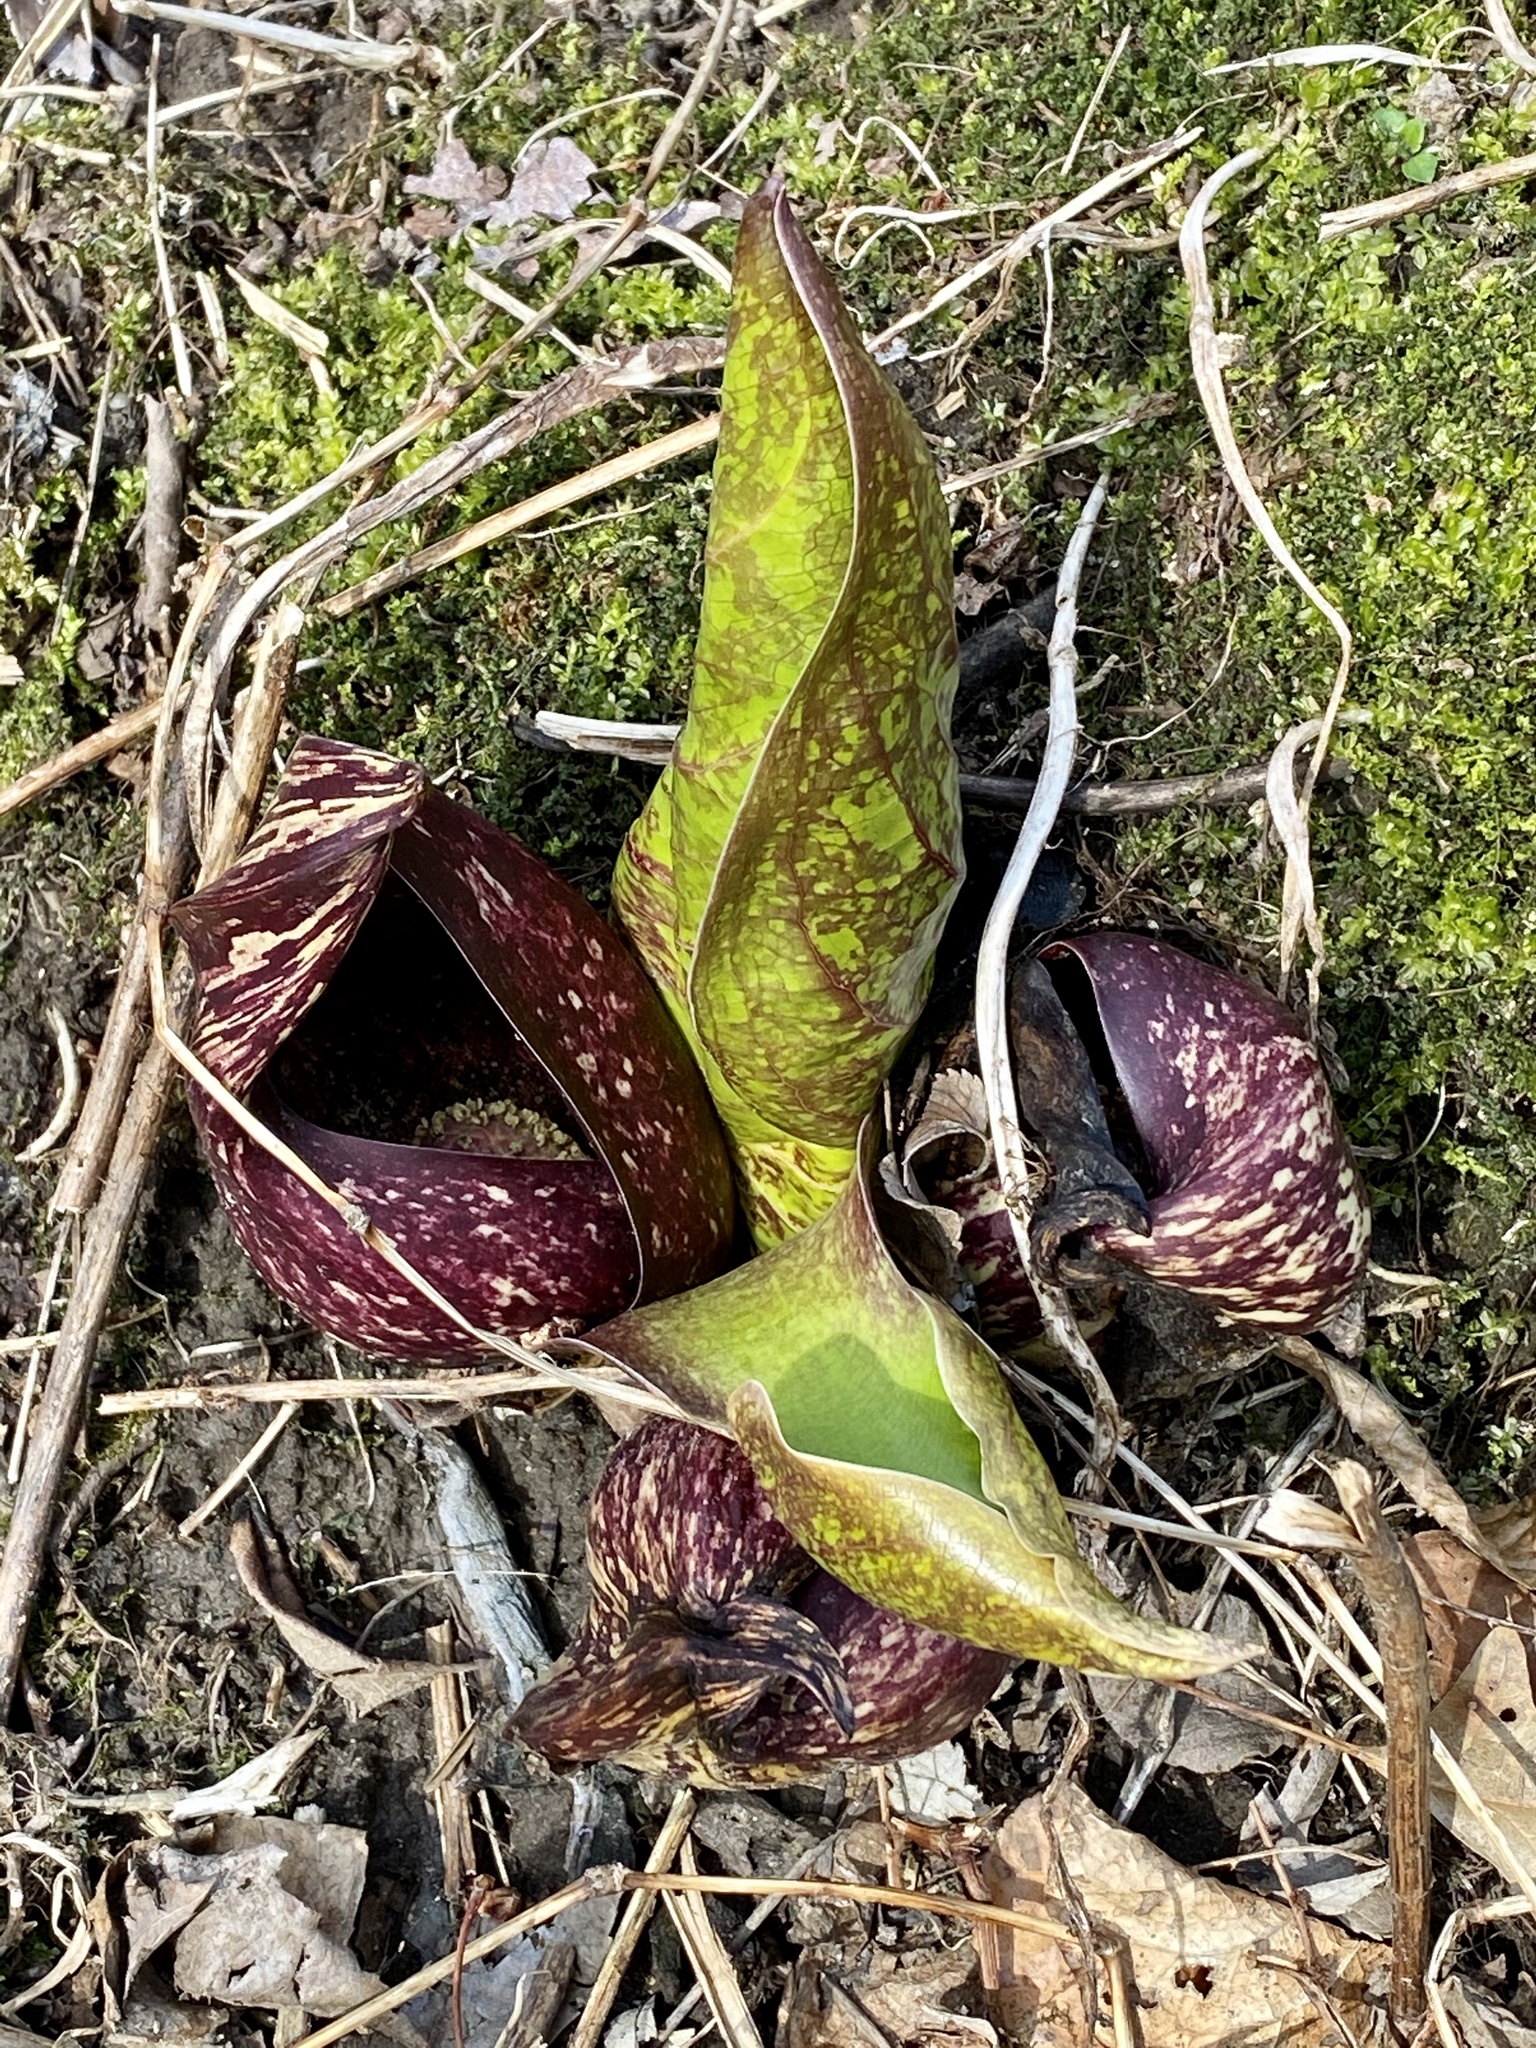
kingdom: Plantae
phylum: Tracheophyta
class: Liliopsida
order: Alismatales
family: Araceae
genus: Symplocarpus
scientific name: Symplocarpus foetidus
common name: Eastern skunk cabbage
